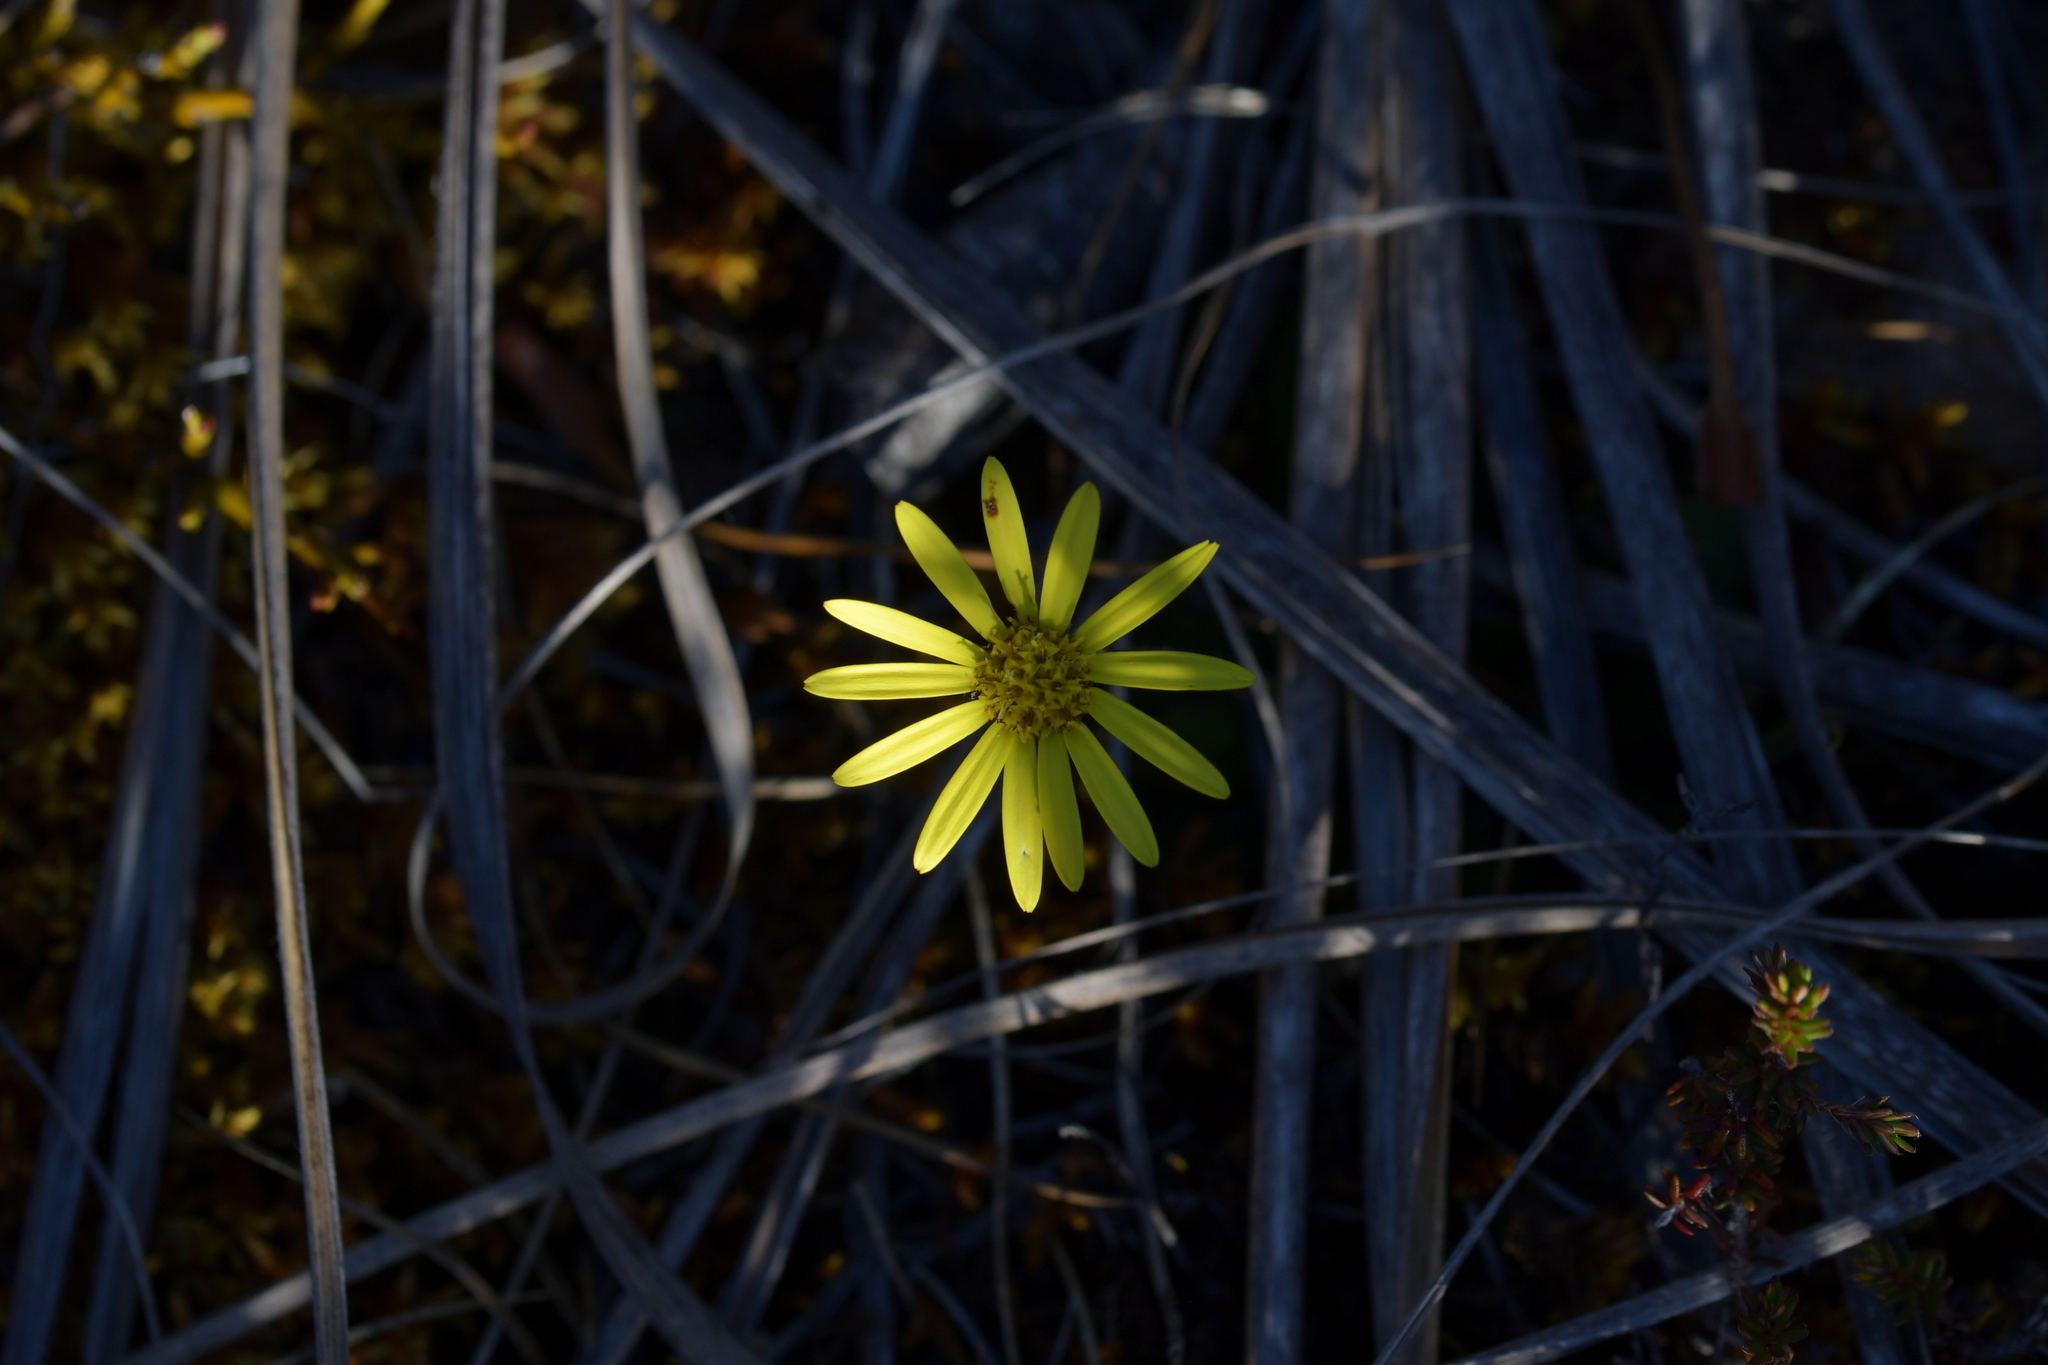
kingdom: Plantae
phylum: Tracheophyta
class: Magnoliopsida
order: Asterales
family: Asteraceae
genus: Brachyglottis
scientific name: Brachyglottis bellidioides
